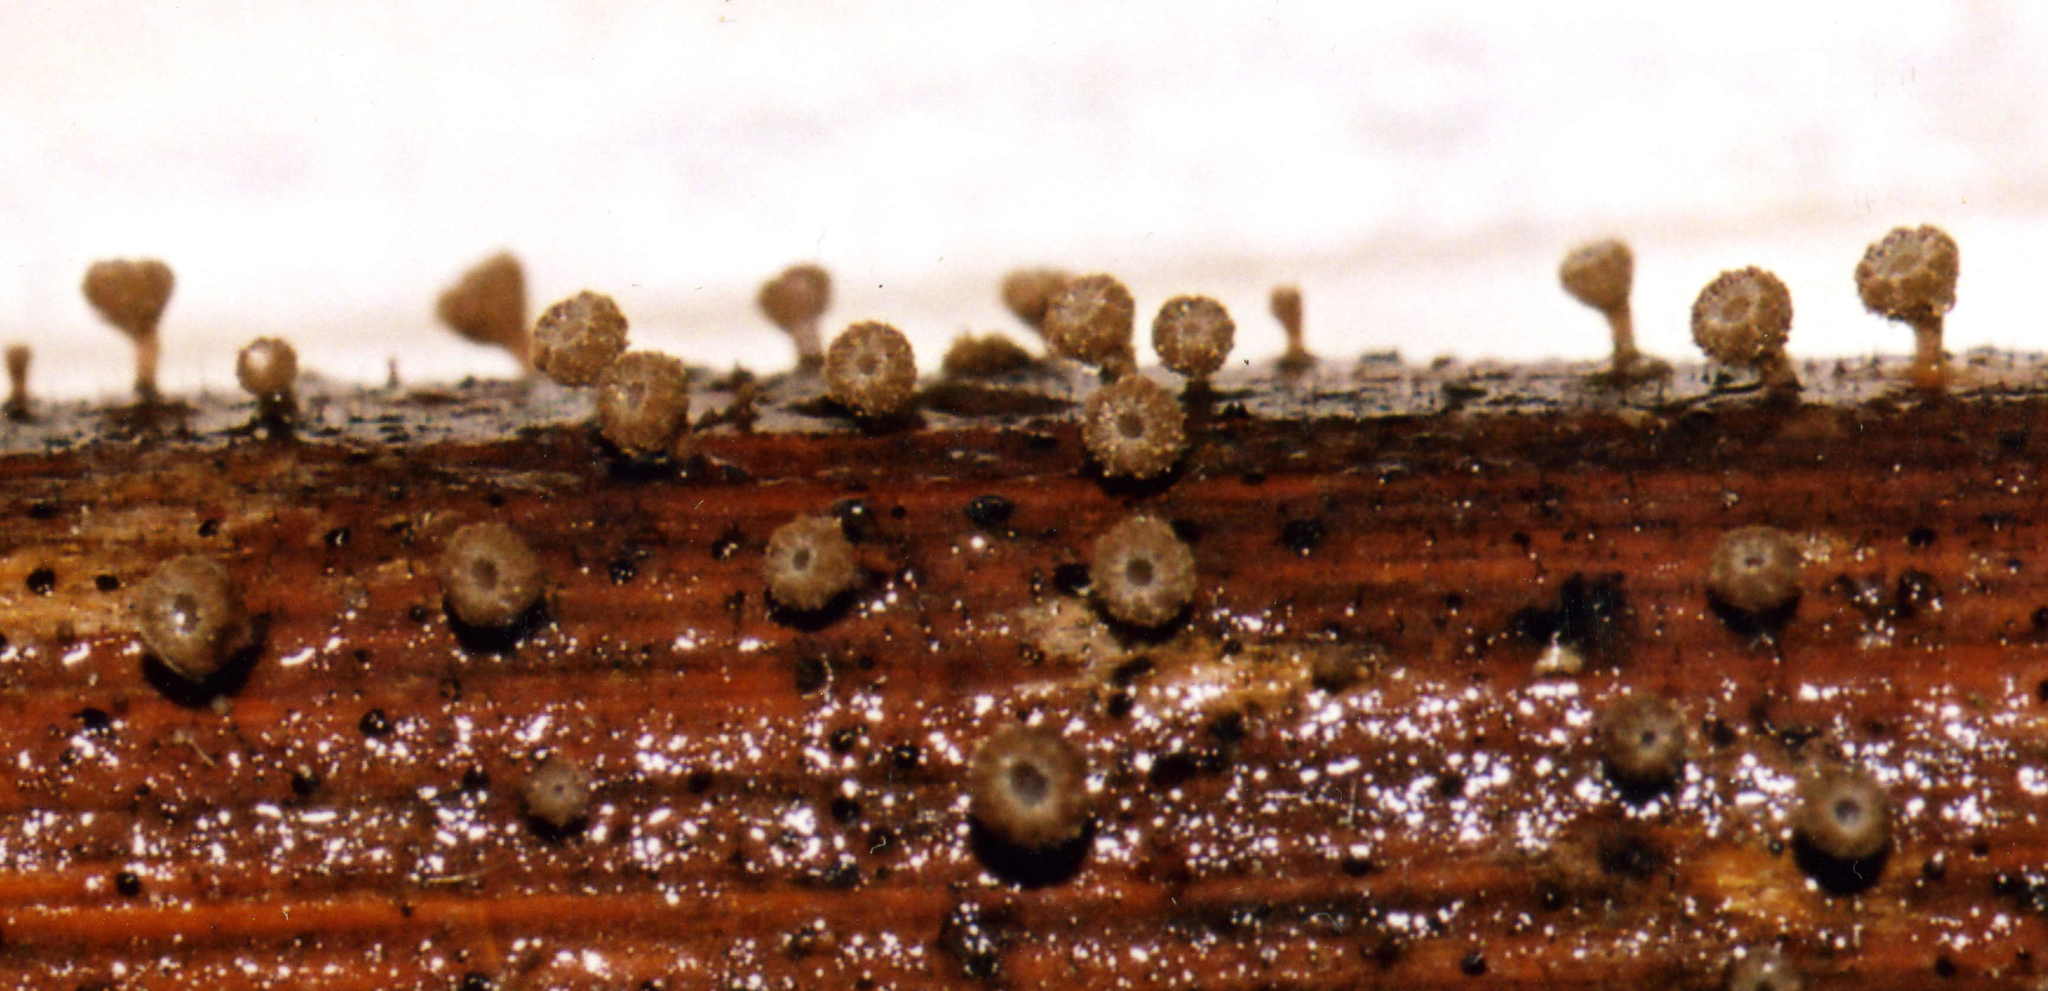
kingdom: Fungi
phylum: Ascomycota
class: Leotiomycetes
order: Helotiales
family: Lachnaceae
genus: Brunnipila
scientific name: Brunnipila clandestina
